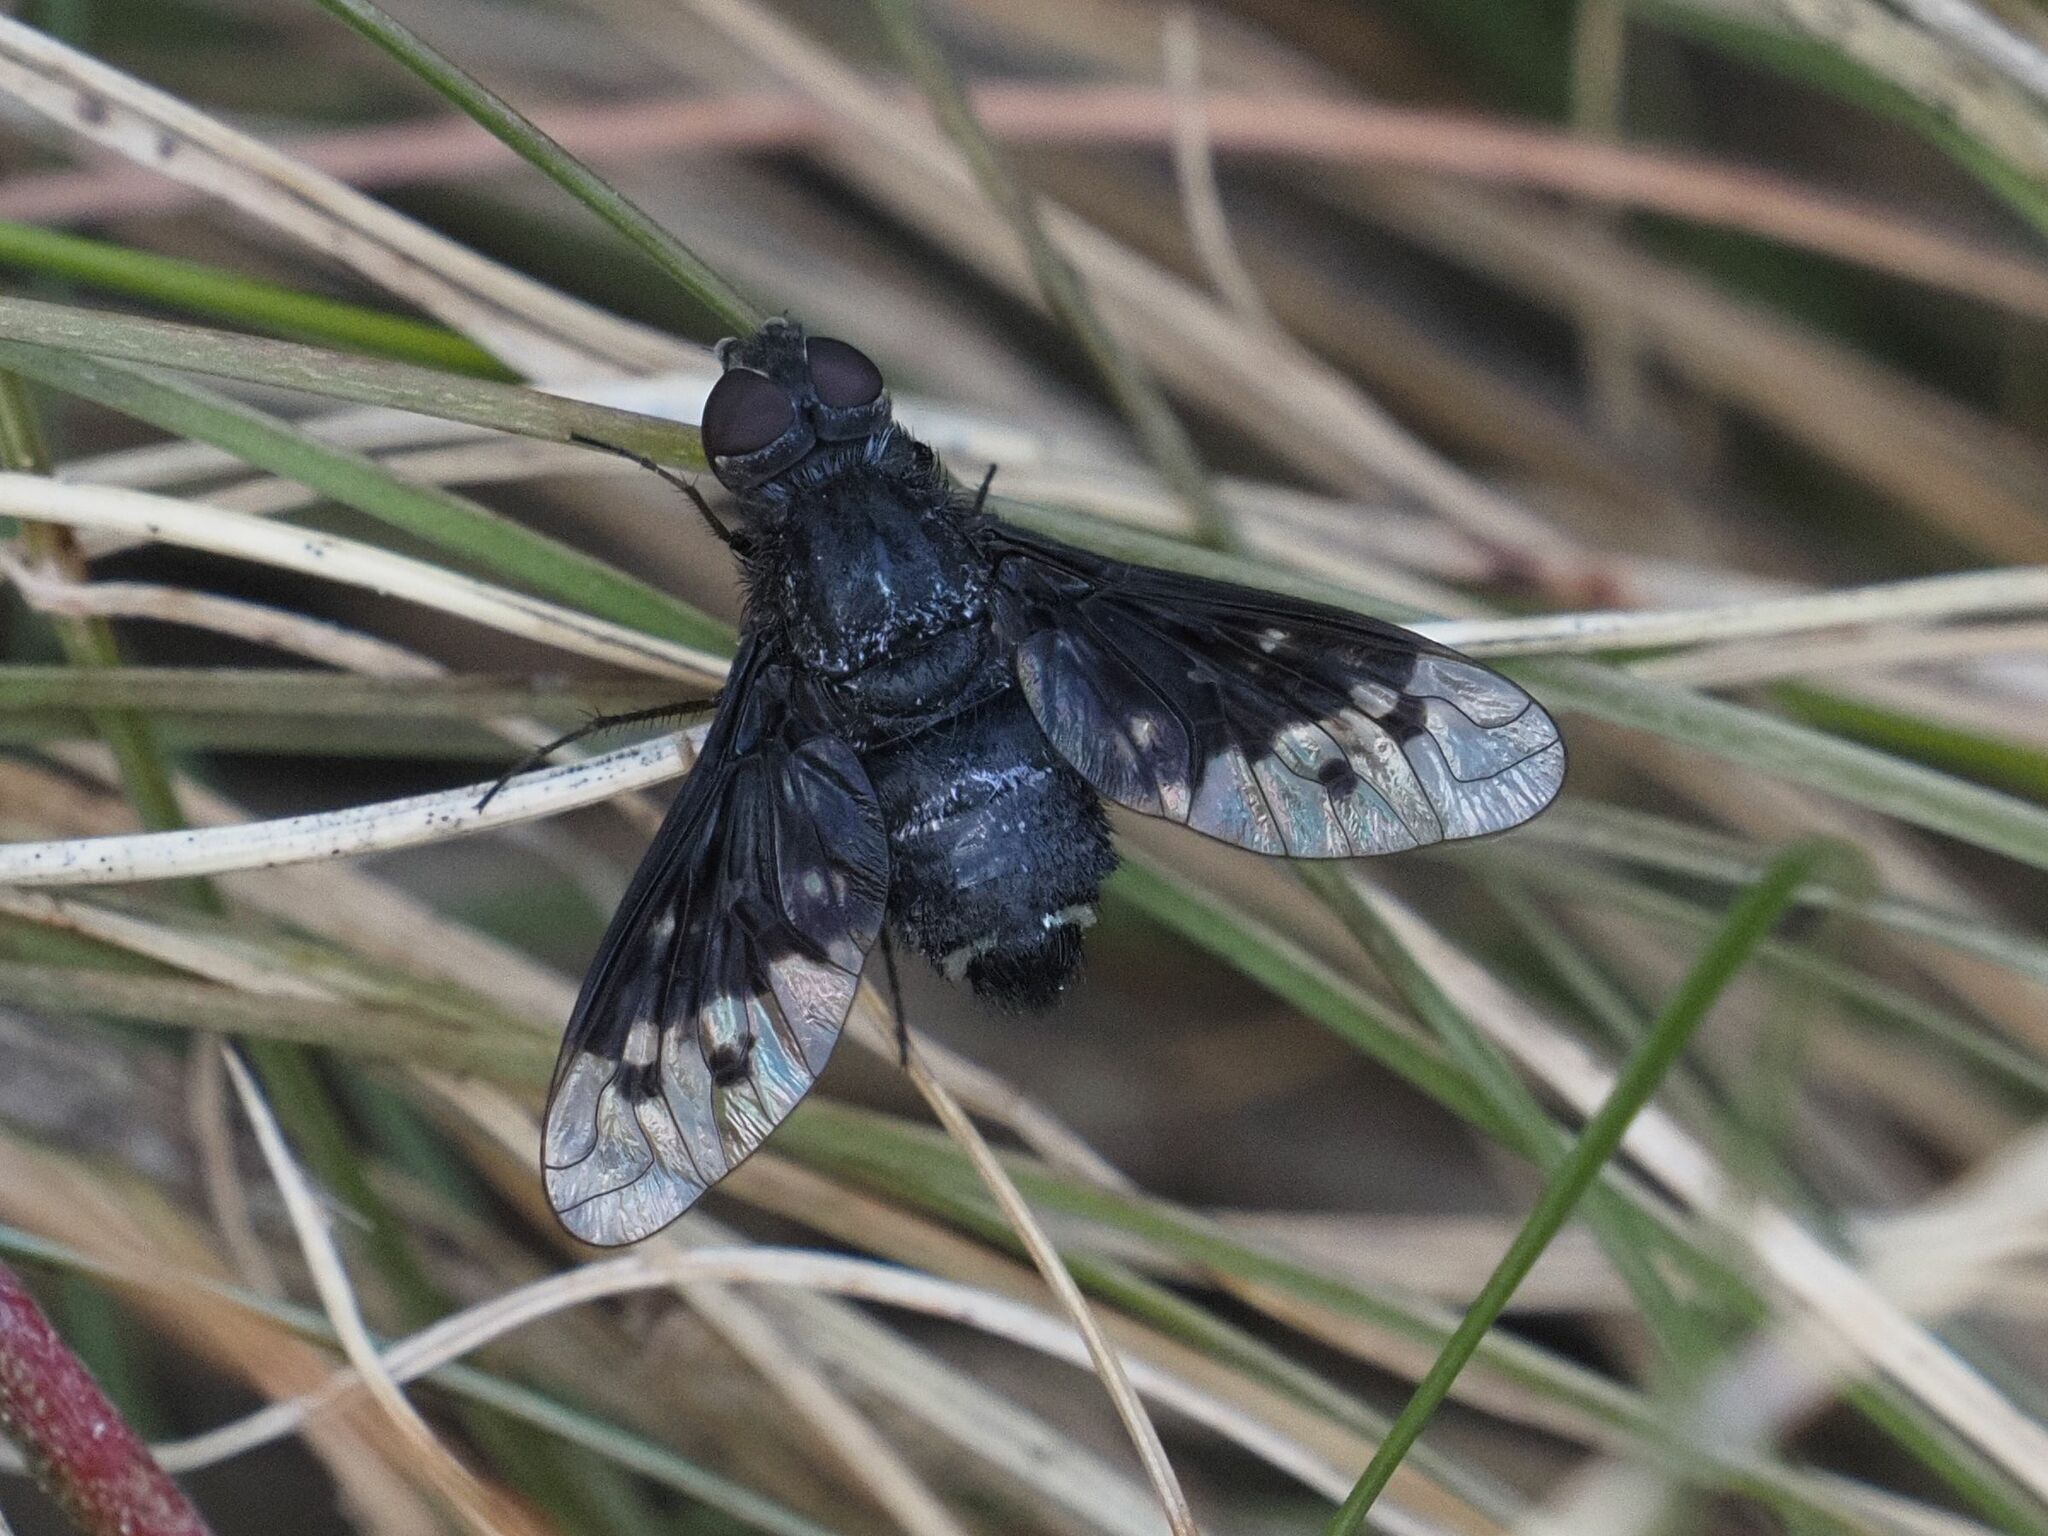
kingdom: Animalia
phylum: Arthropoda
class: Insecta
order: Diptera
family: Bombyliidae
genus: Spogostylum
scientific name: Spogostylum aethiops
